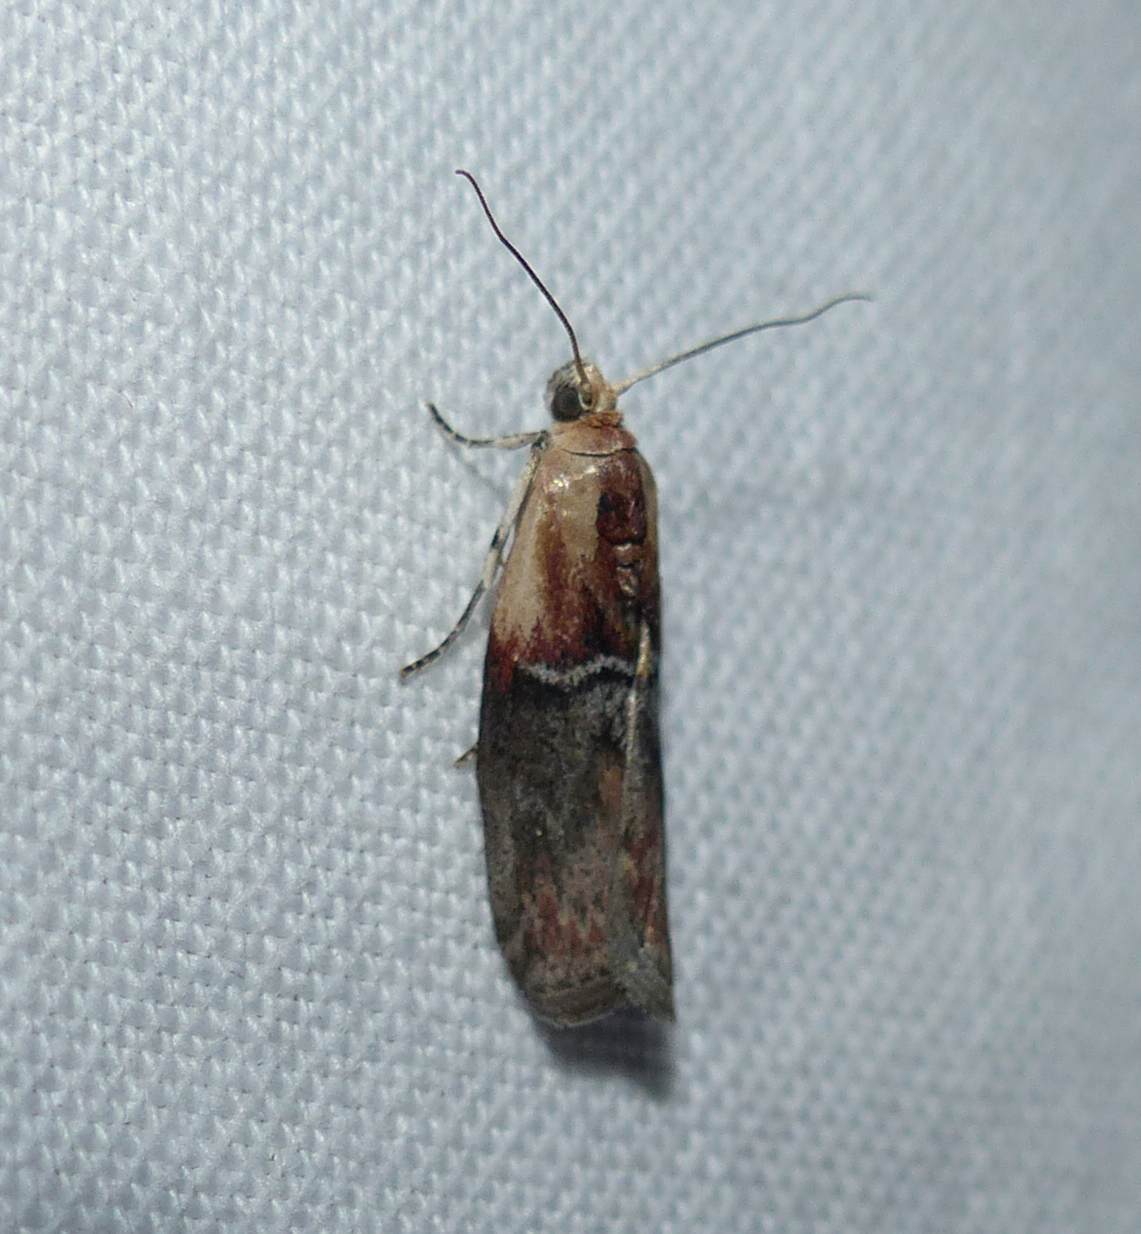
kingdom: Animalia
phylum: Arthropoda
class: Insecta
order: Lepidoptera
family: Pyralidae
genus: Sciota
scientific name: Sciota basilaris
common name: Yellow-shouldered leafroller
